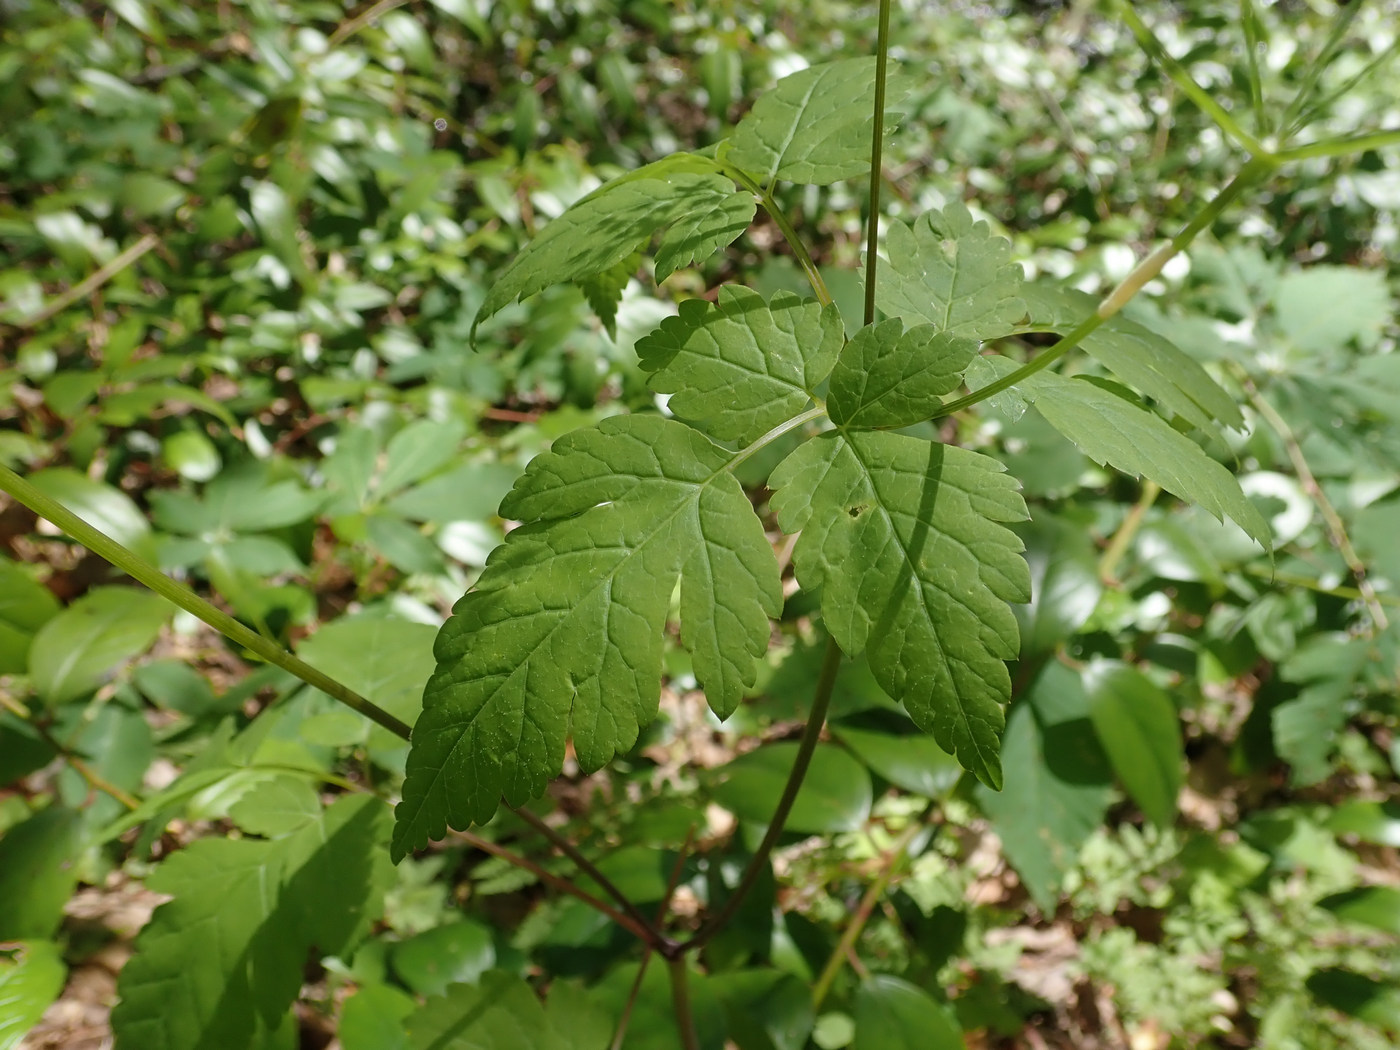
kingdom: Plantae
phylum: Tracheophyta
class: Magnoliopsida
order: Apiales
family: Apiaceae
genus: Osmorhiza
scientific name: Osmorhiza longistylis
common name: Smooth sweet cicely
